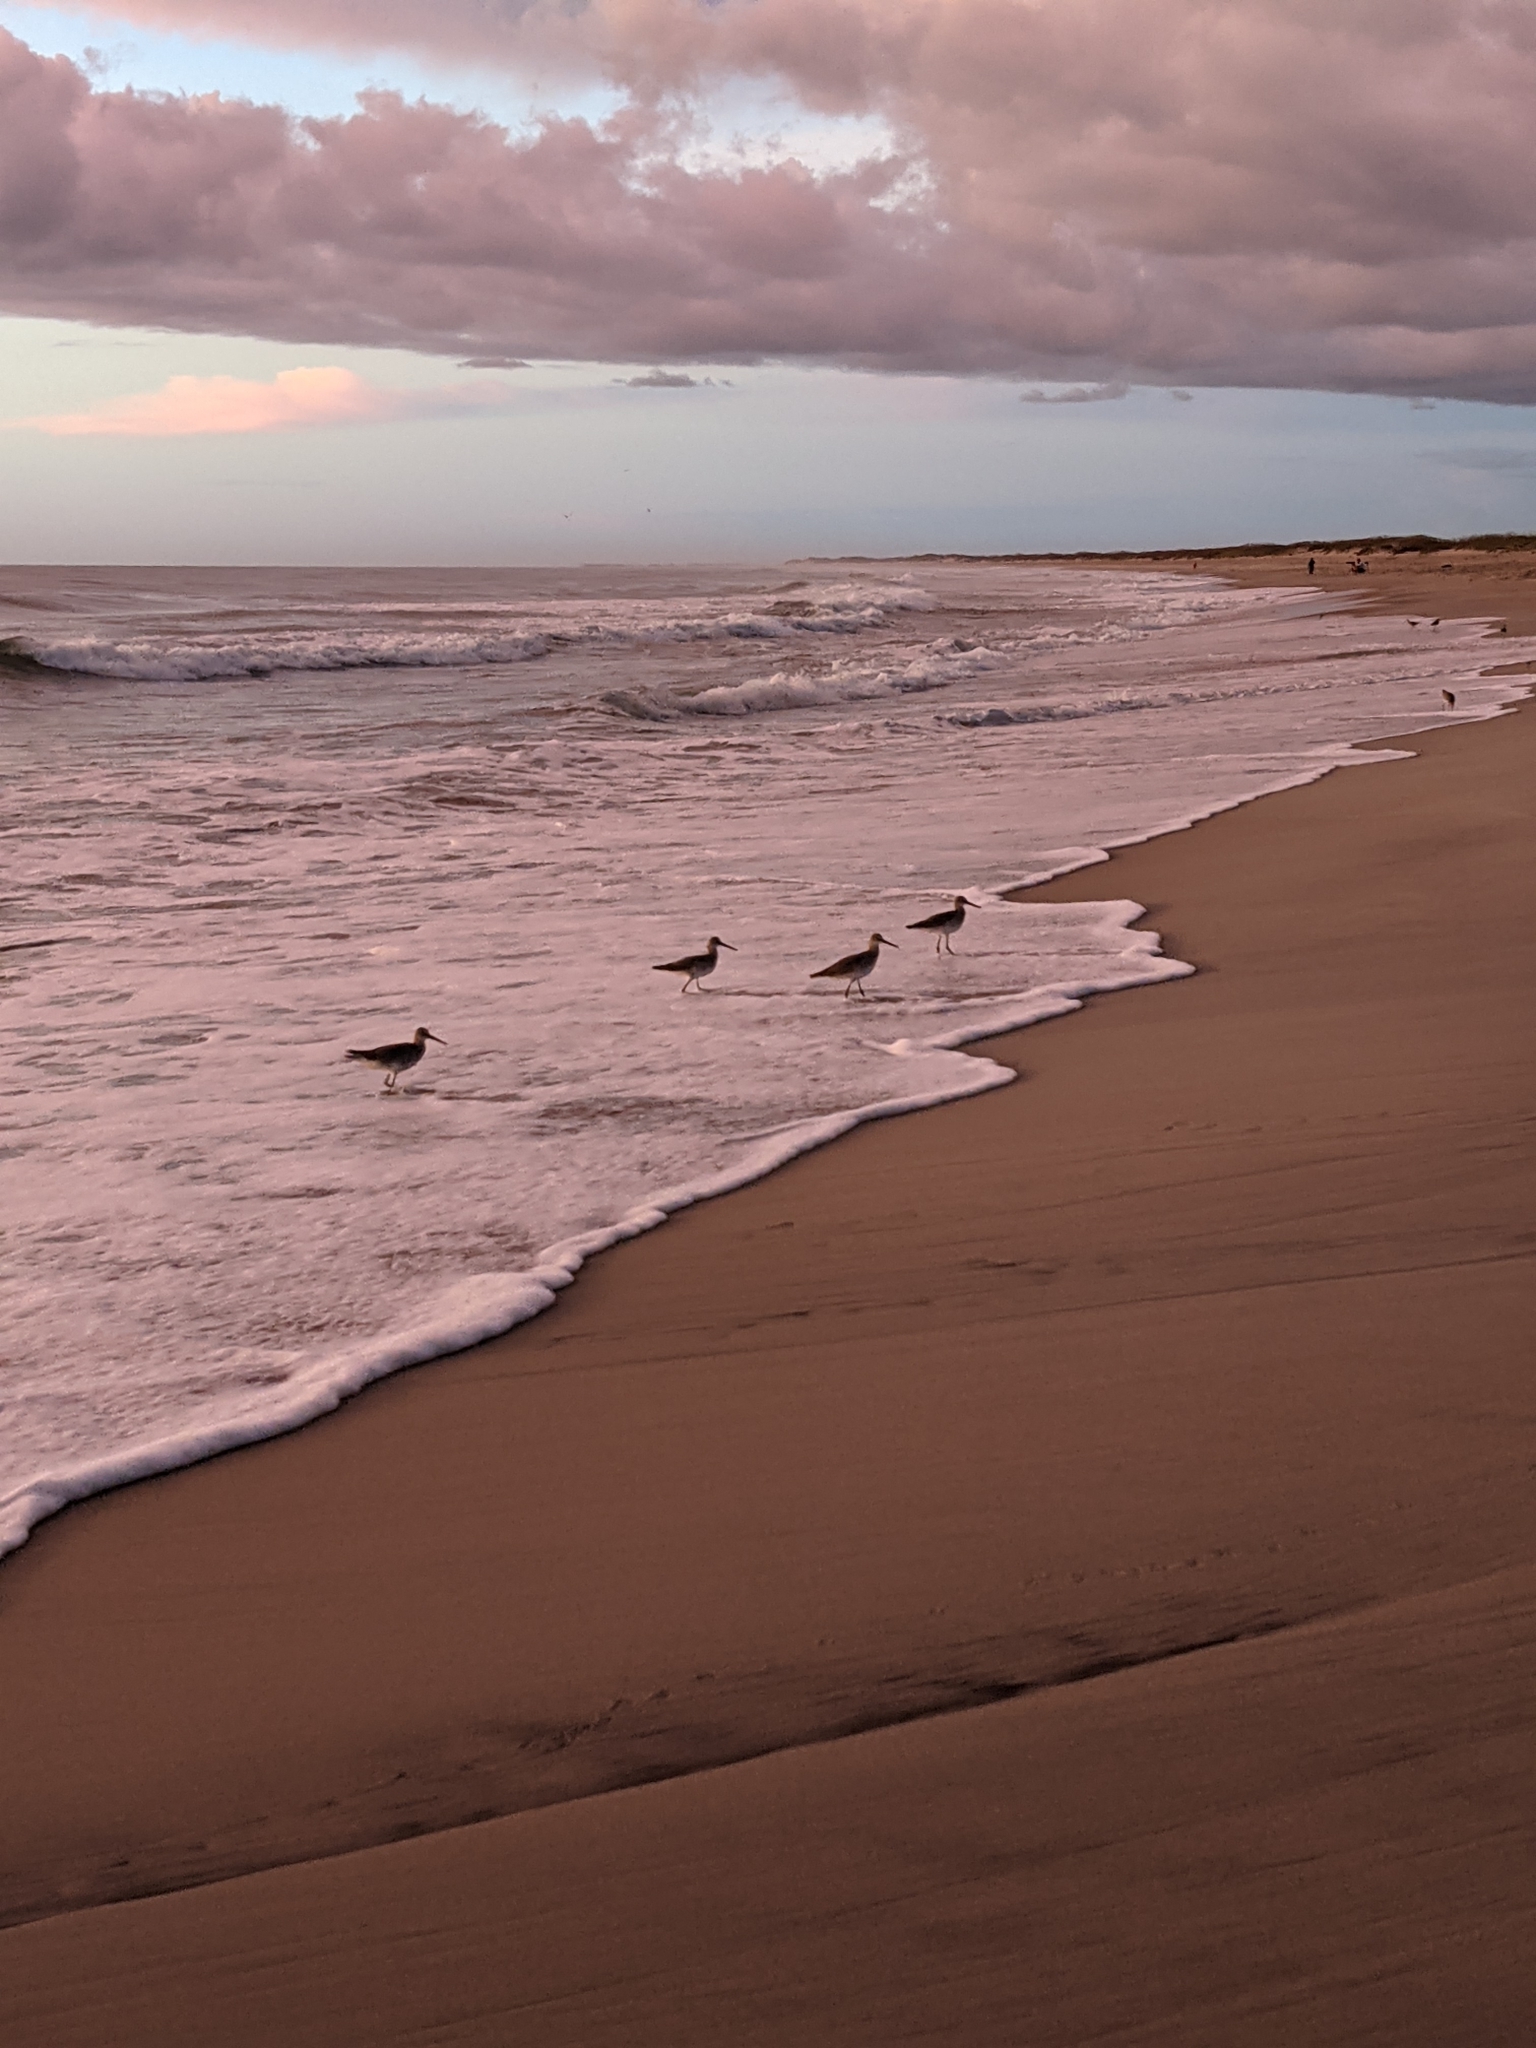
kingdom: Animalia
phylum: Chordata
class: Aves
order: Charadriiformes
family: Scolopacidae
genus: Tringa
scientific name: Tringa semipalmata
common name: Willet
